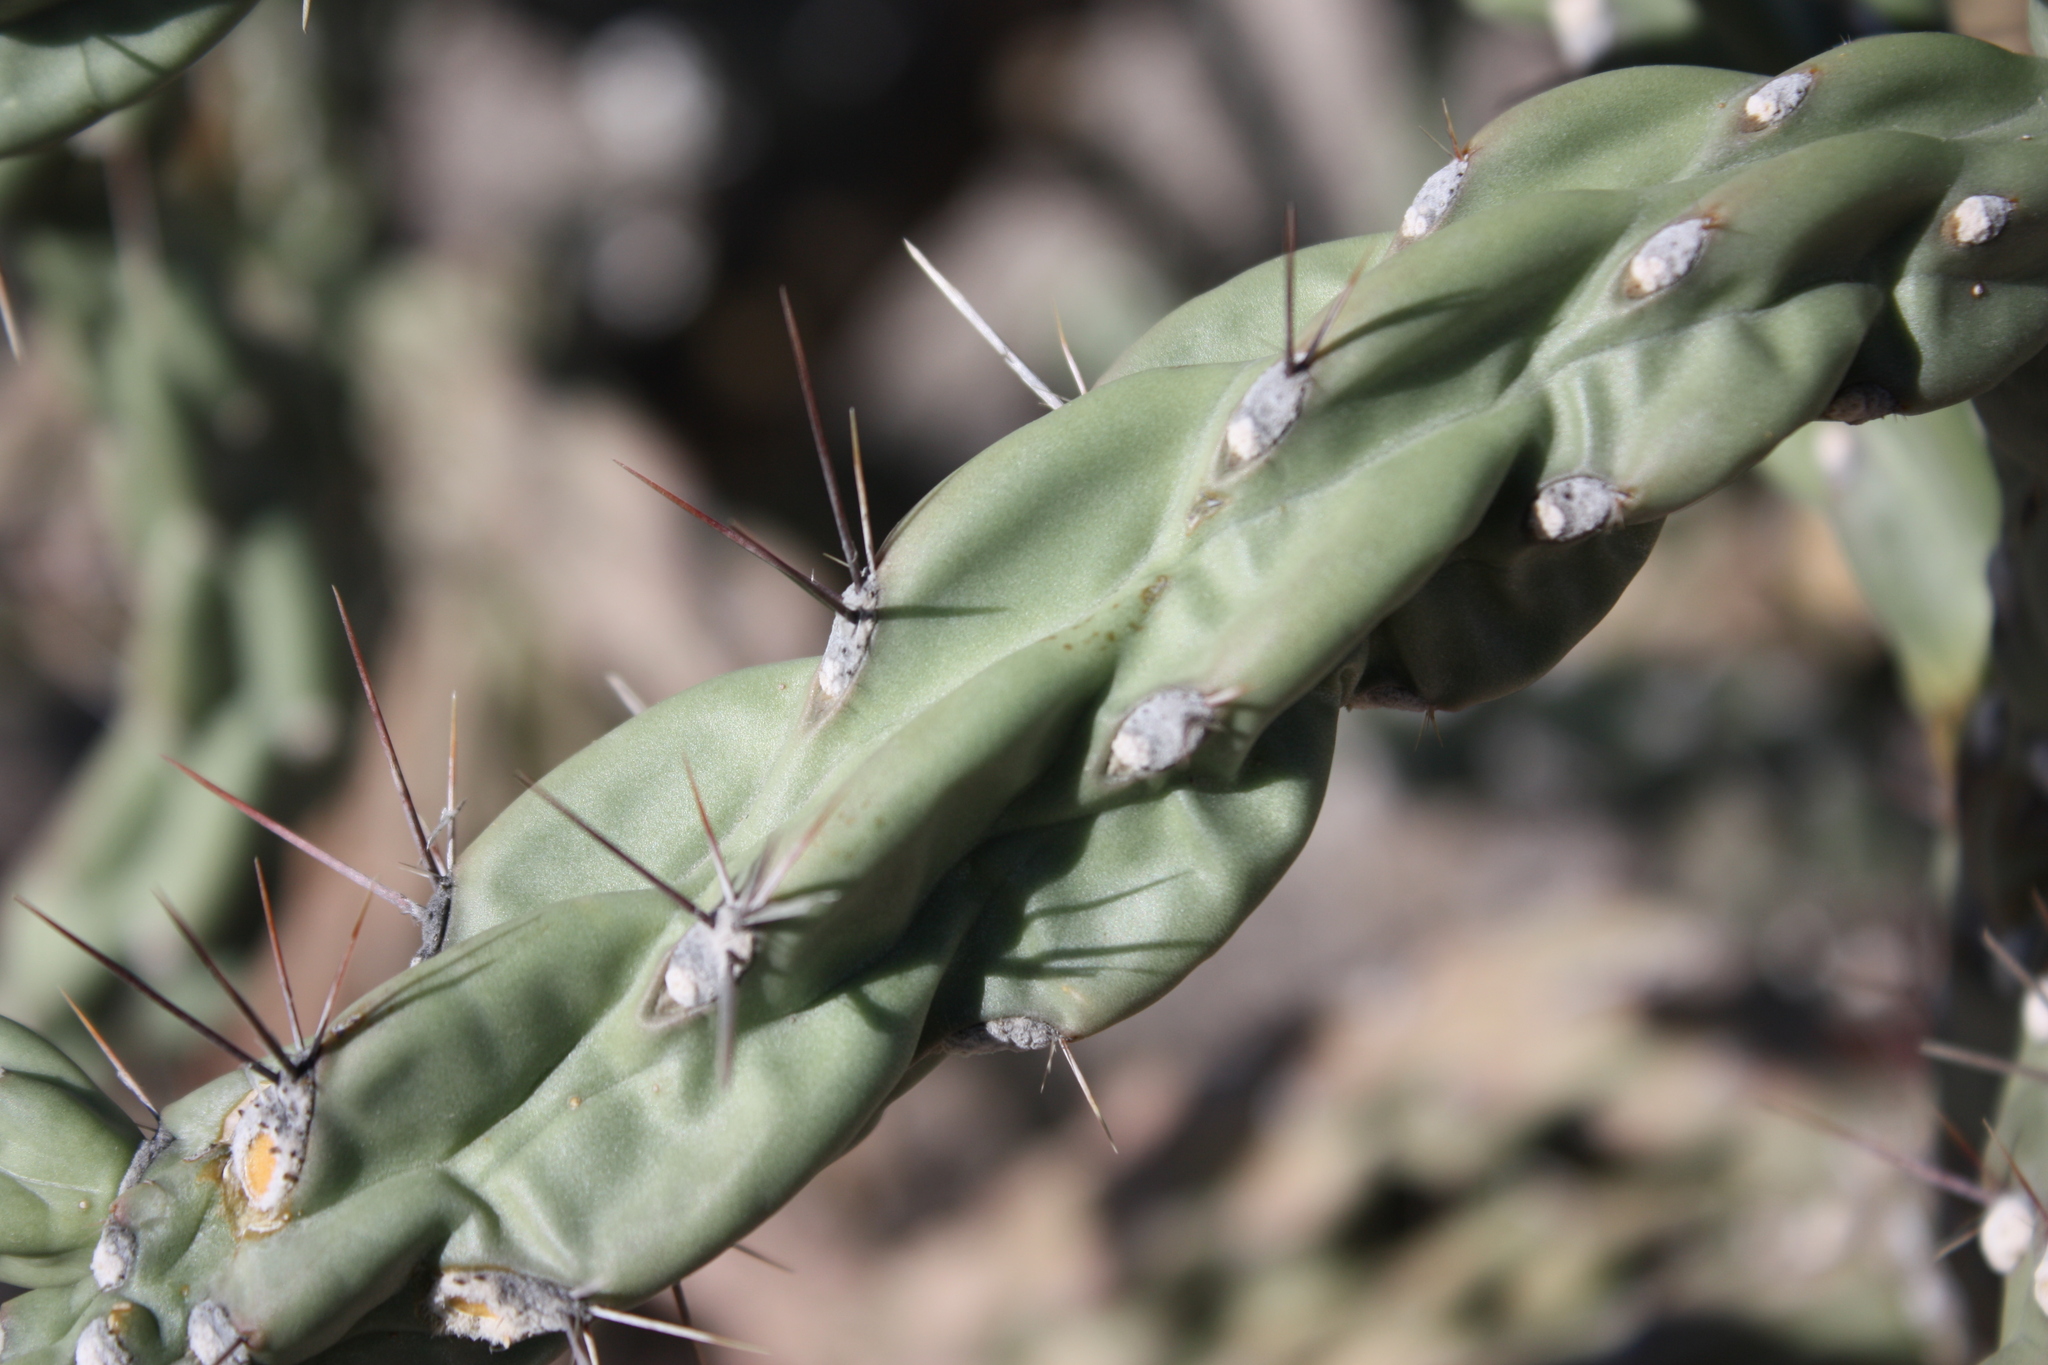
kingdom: Plantae
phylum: Tracheophyta
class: Magnoliopsida
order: Caryophyllales
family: Cactaceae
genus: Cylindropuntia
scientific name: Cylindropuntia imbricata
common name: Candelabrum cactus
